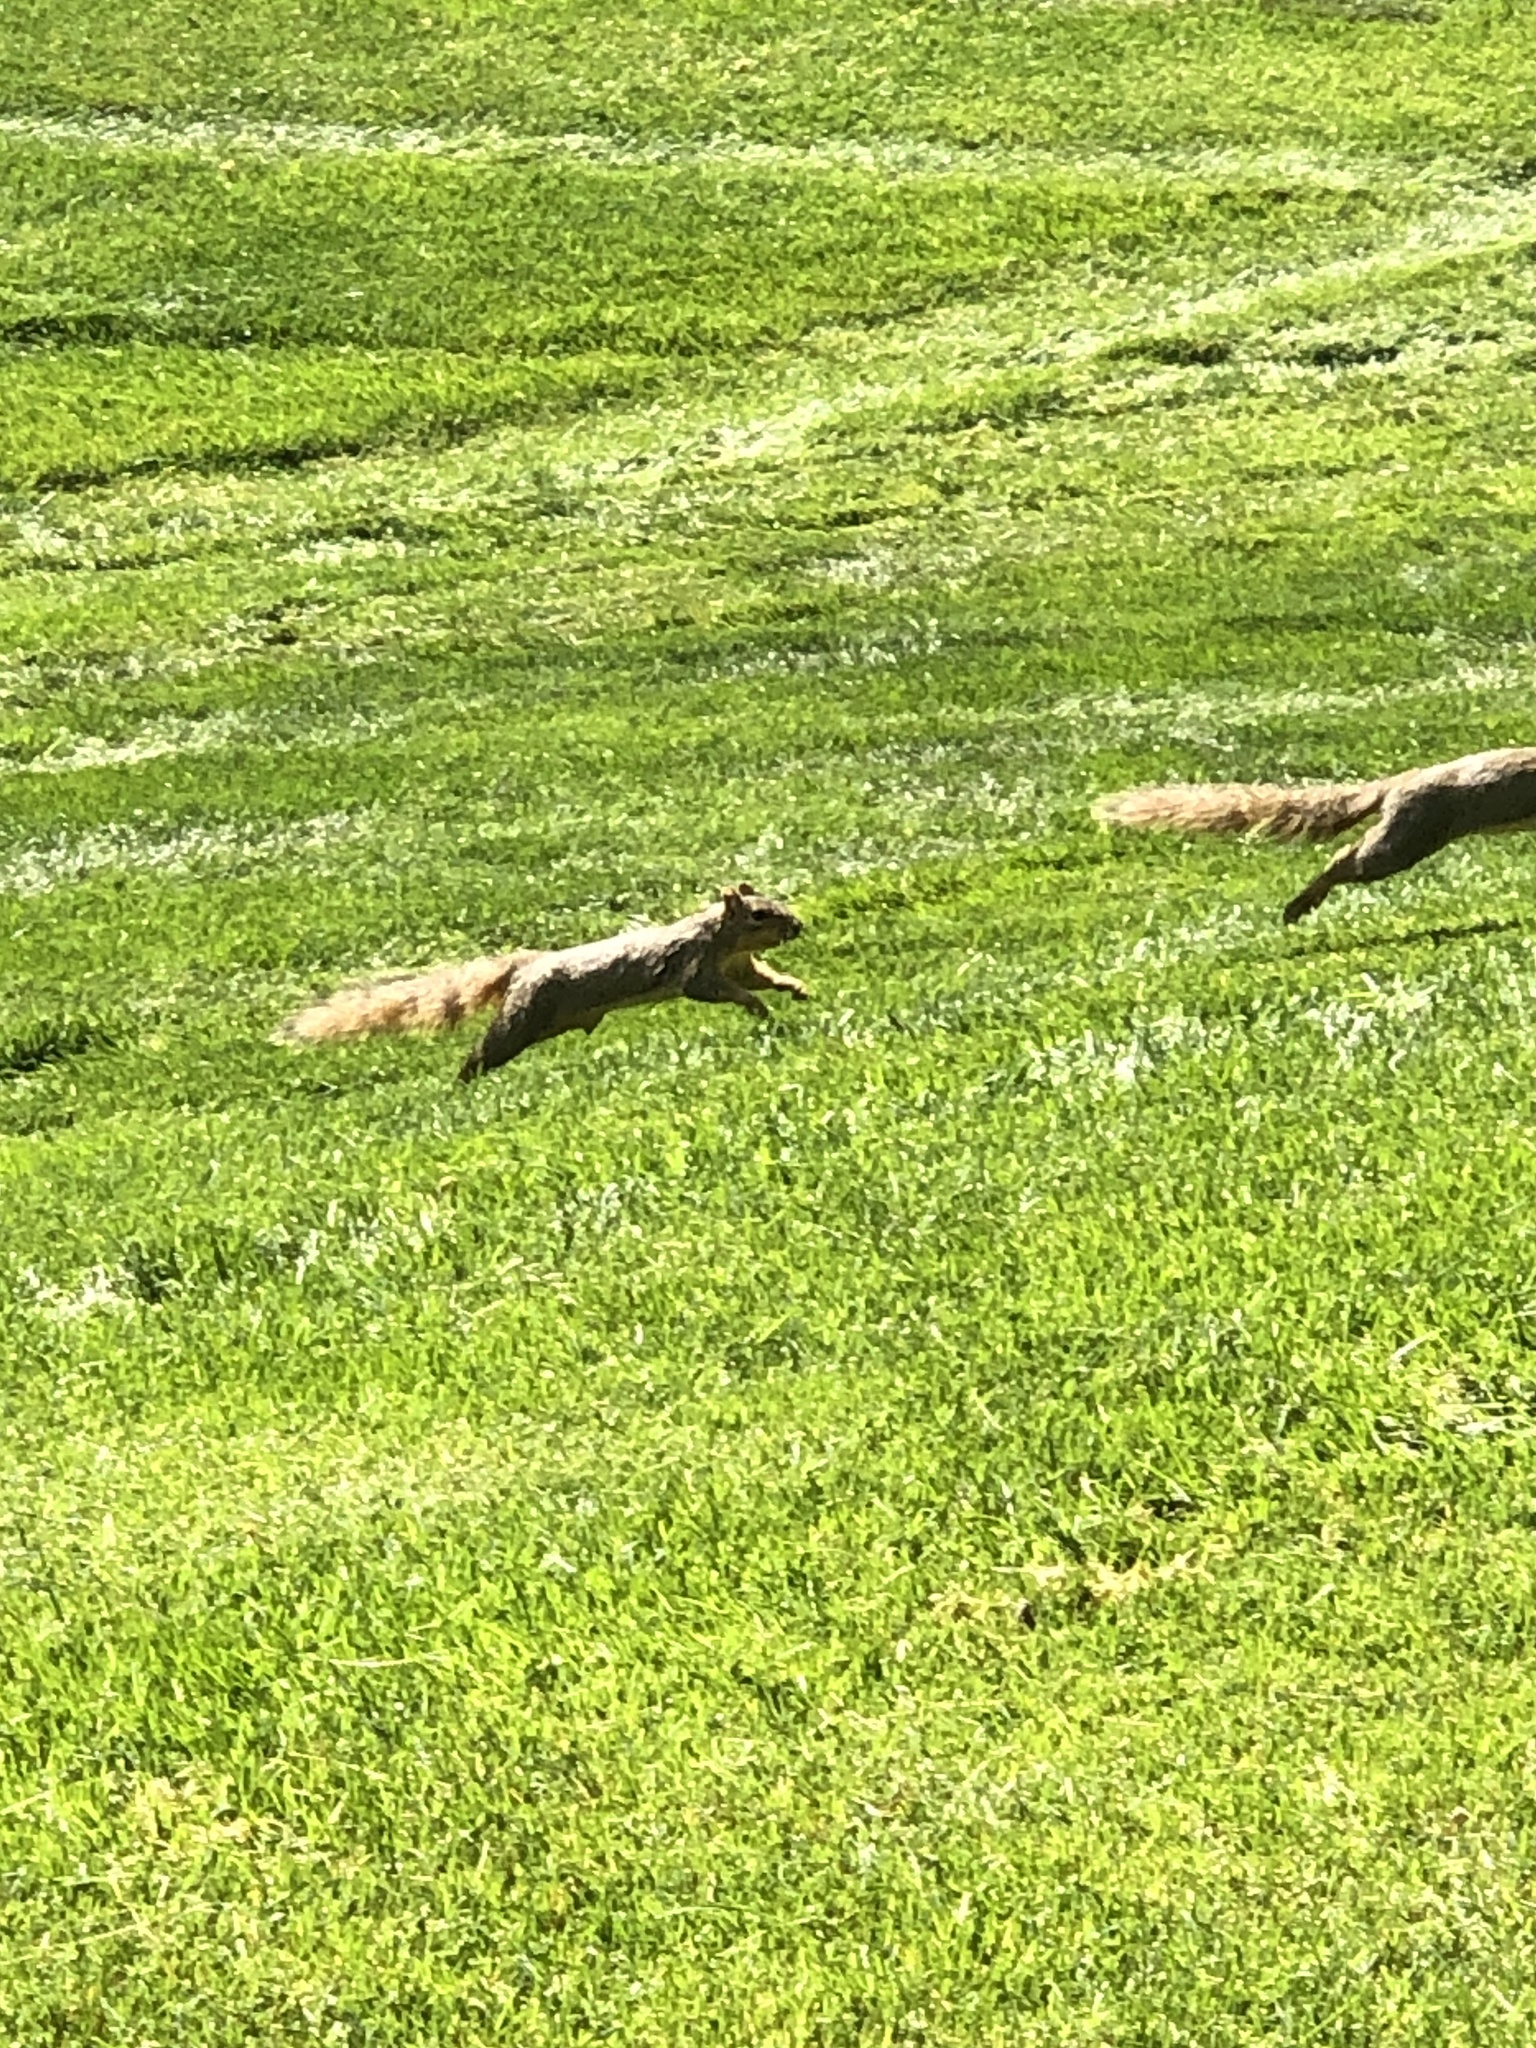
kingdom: Animalia
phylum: Chordata
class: Mammalia
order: Rodentia
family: Sciuridae
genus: Sciurus
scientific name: Sciurus niger
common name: Fox squirrel
